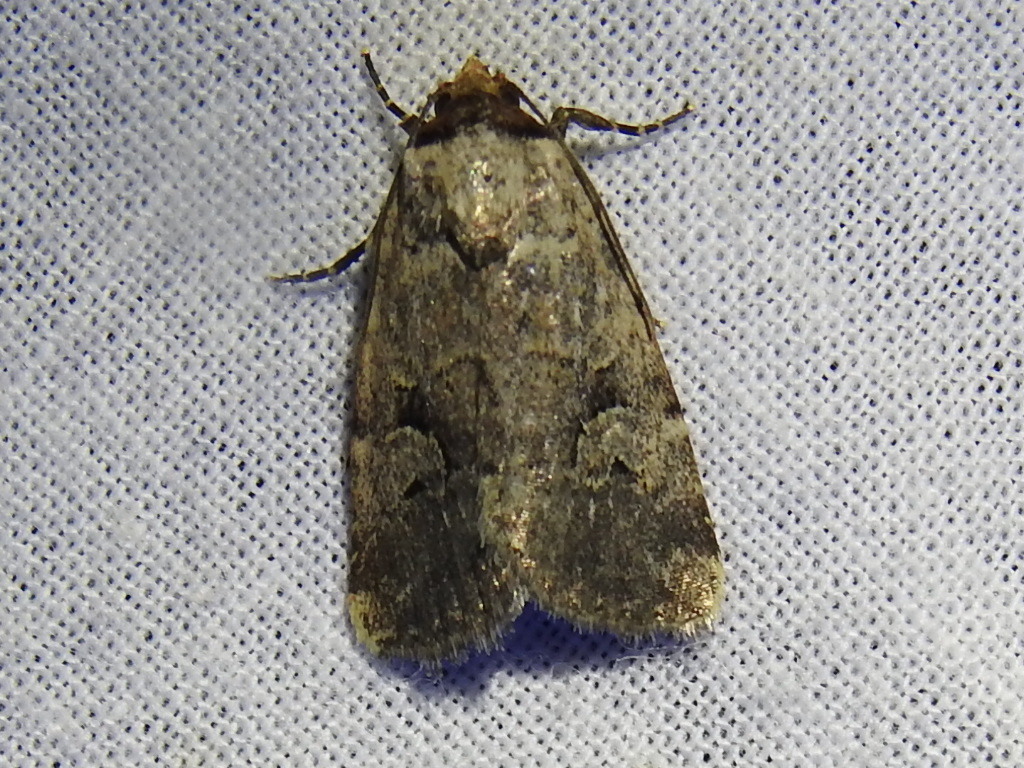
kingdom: Animalia
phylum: Arthropoda
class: Insecta
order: Lepidoptera
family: Noctuidae
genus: Elaphria
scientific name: Elaphria festivoides
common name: Festive midget
